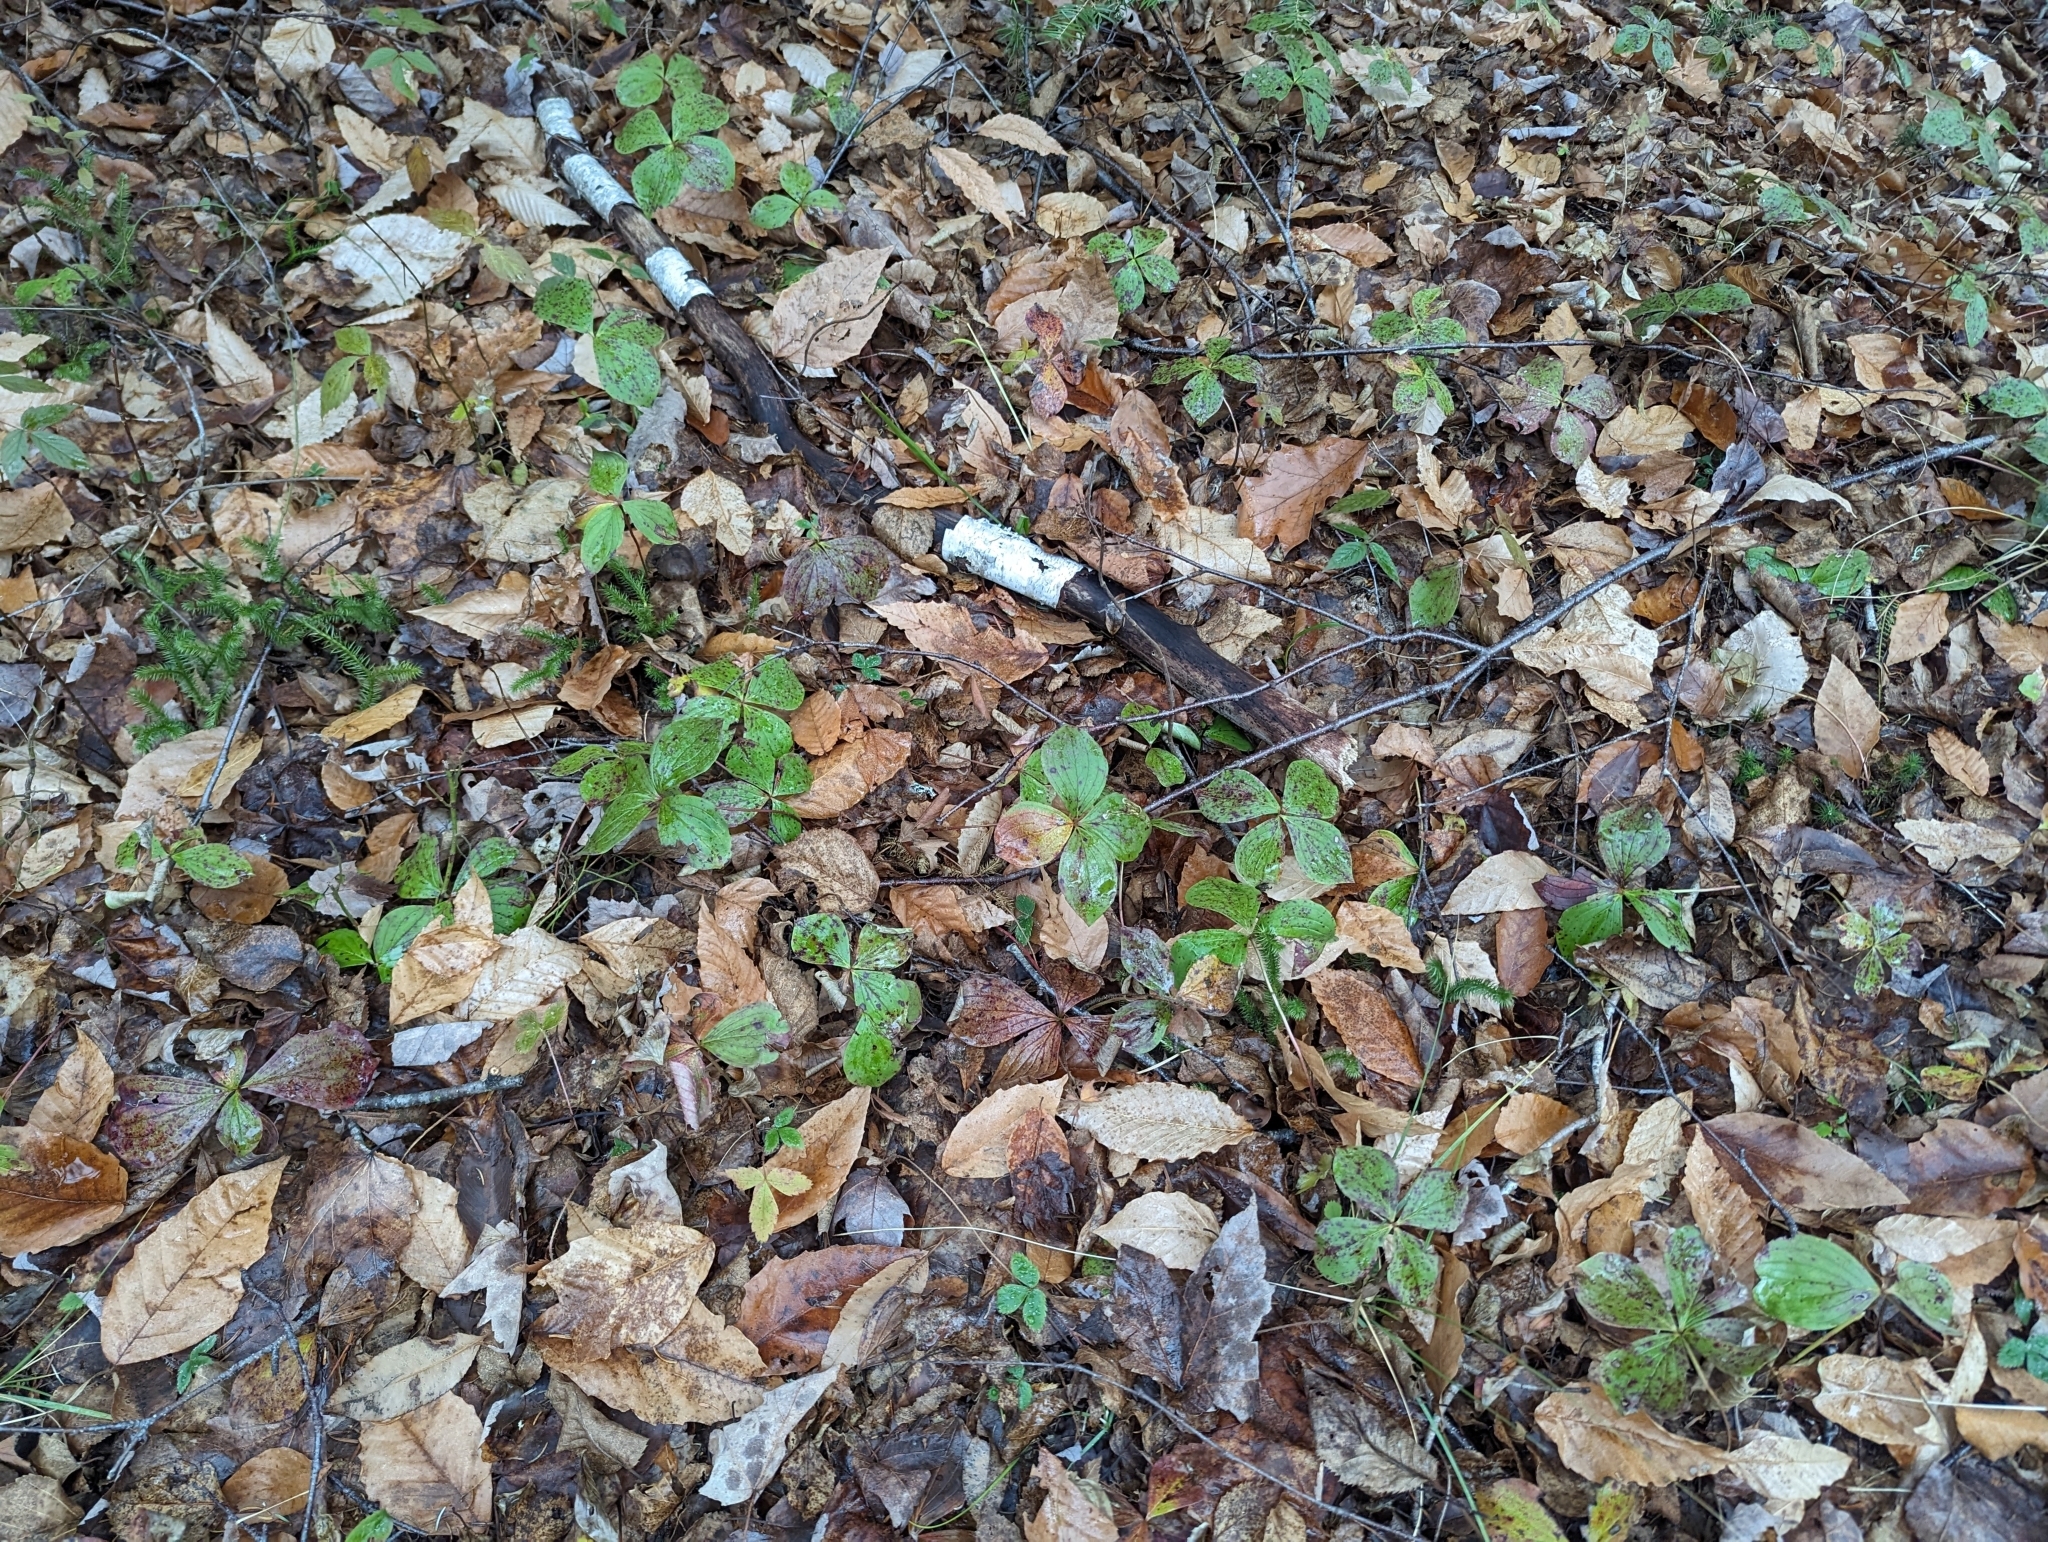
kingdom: Plantae
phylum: Tracheophyta
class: Magnoliopsida
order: Cornales
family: Cornaceae
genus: Cornus
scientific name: Cornus canadensis
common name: Creeping dogwood
